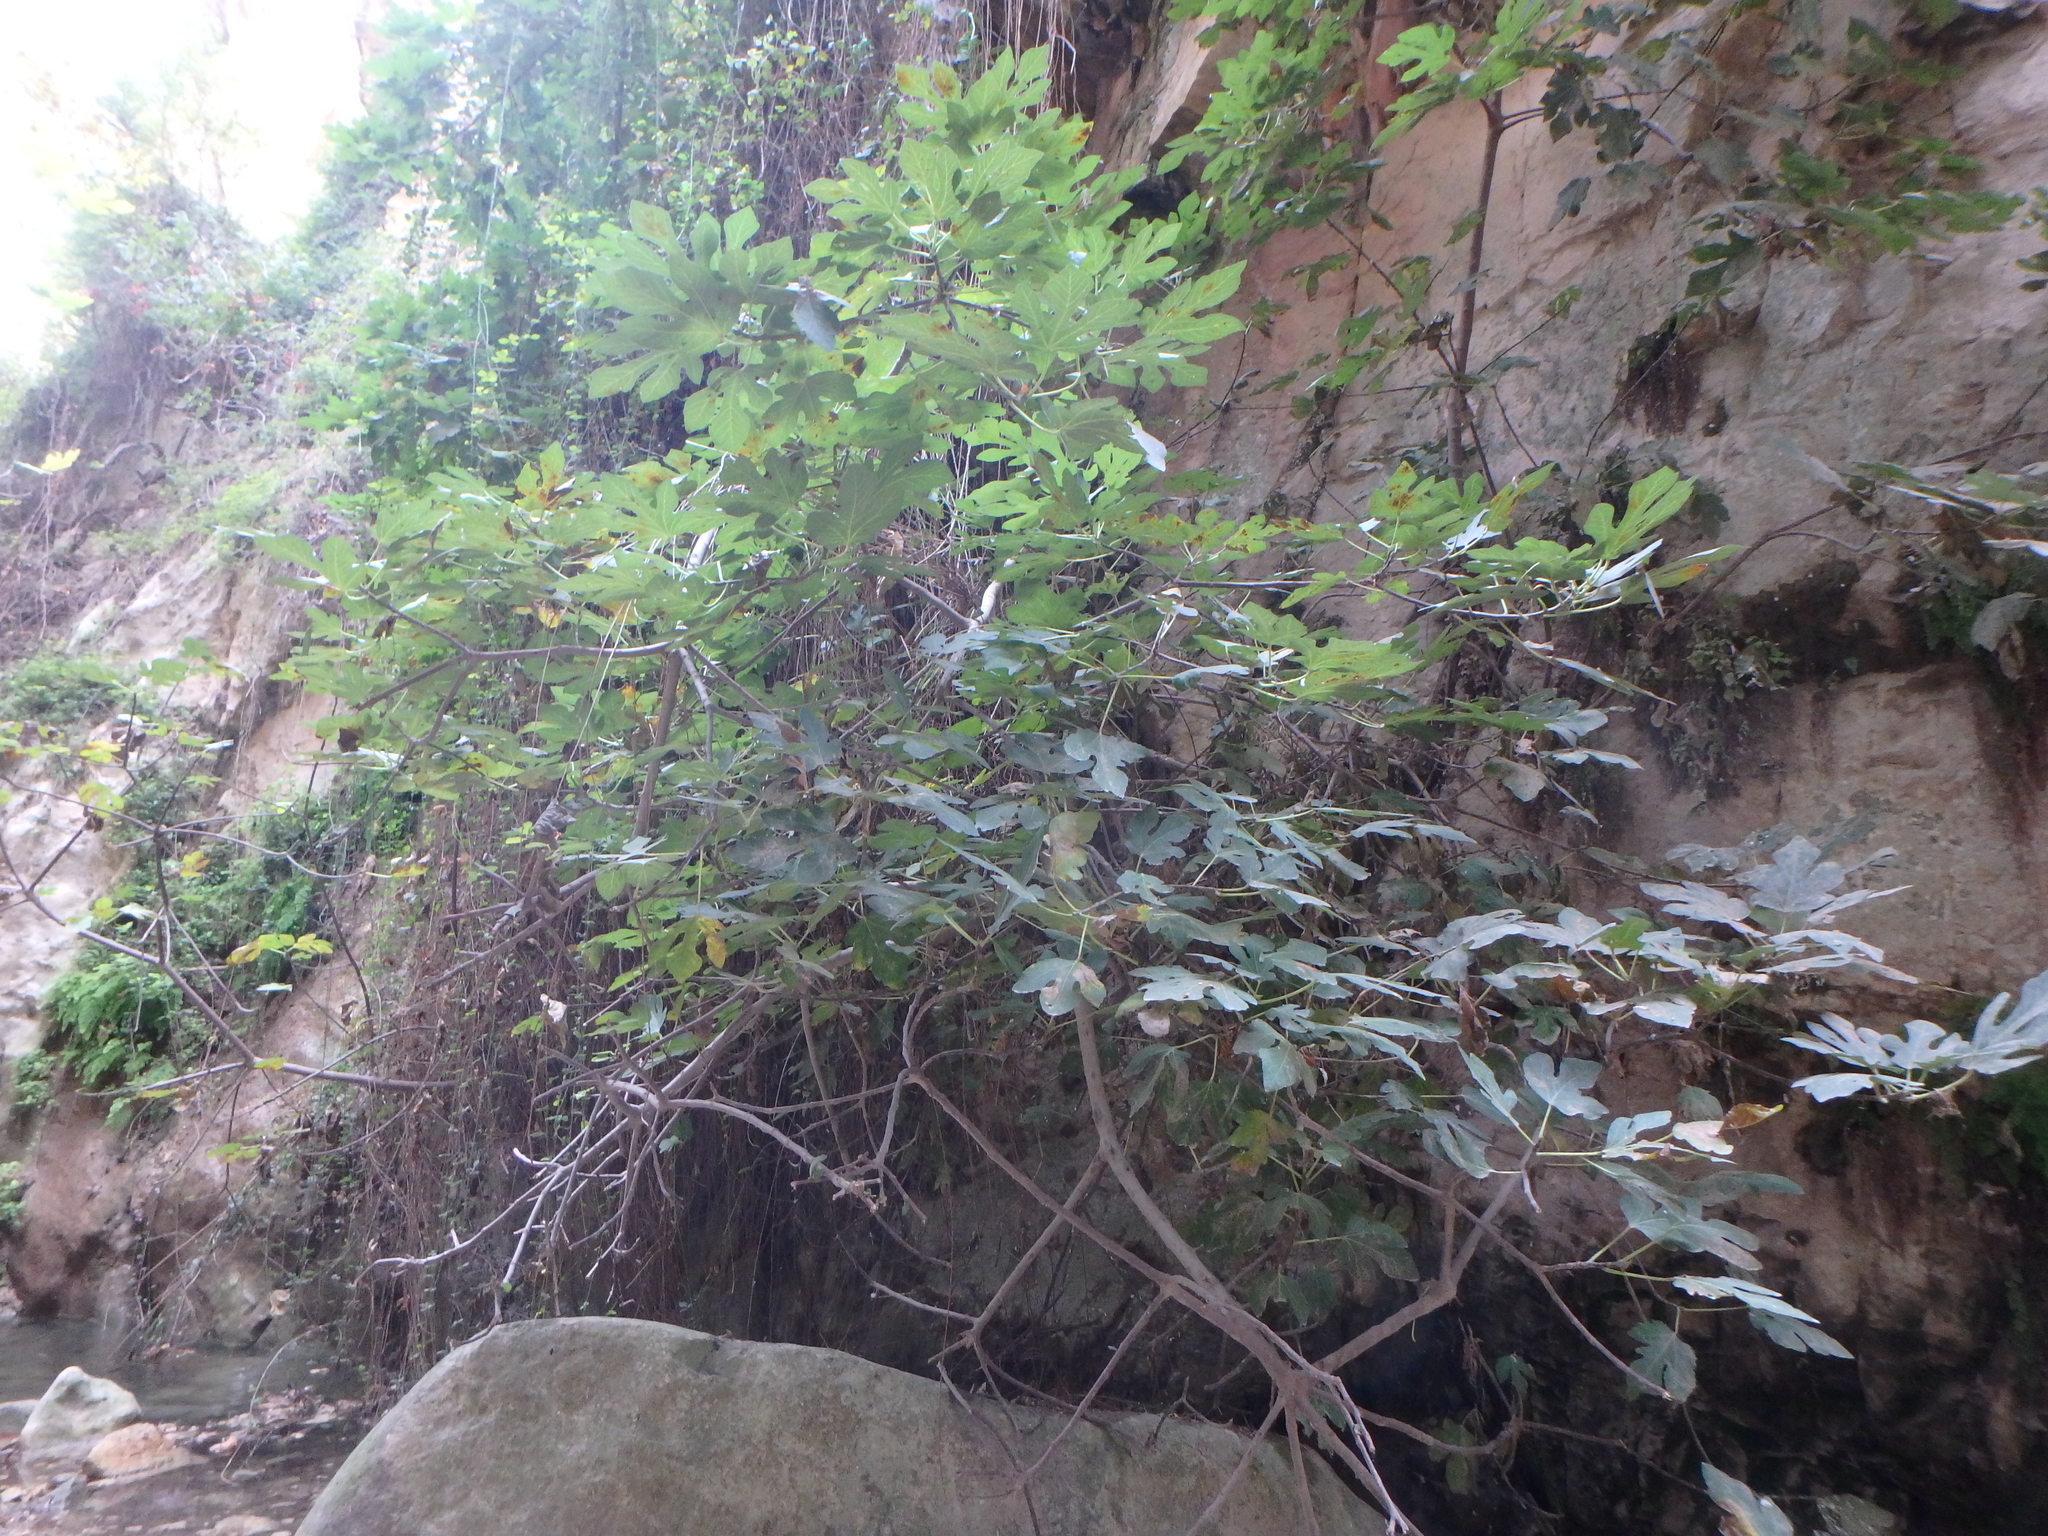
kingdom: Plantae
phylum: Tracheophyta
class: Magnoliopsida
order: Rosales
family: Moraceae
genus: Ficus
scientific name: Ficus carica
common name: Fig
